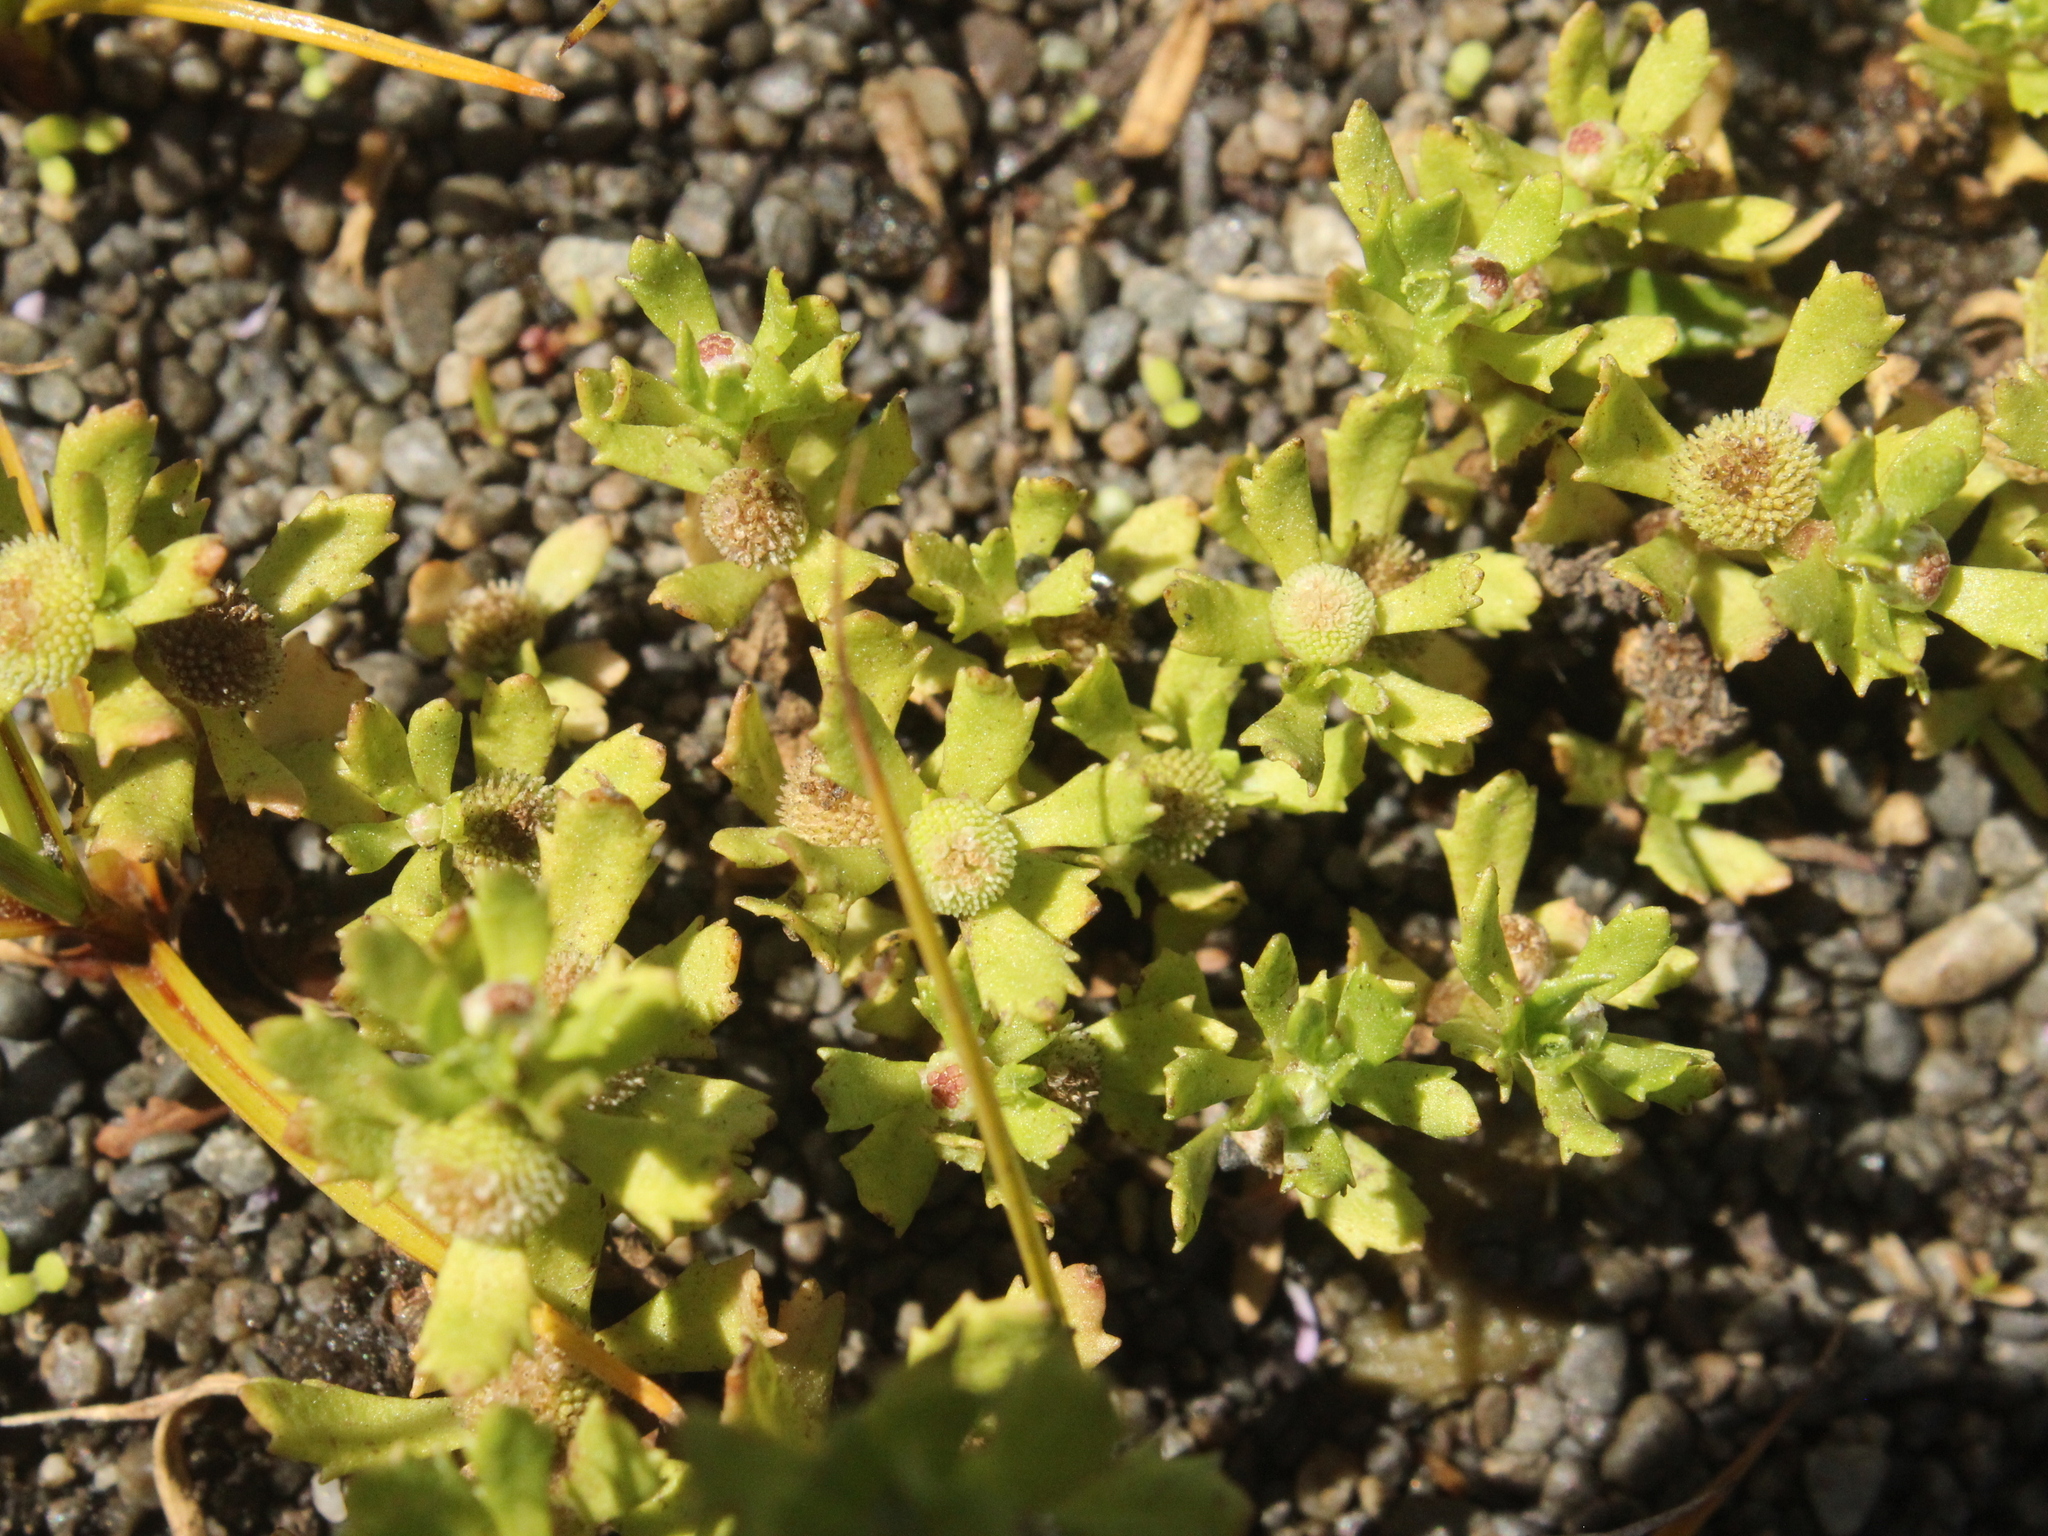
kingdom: Plantae
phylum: Tracheophyta
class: Magnoliopsida
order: Asterales
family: Asteraceae
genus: Centipeda
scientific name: Centipeda aotearoana
